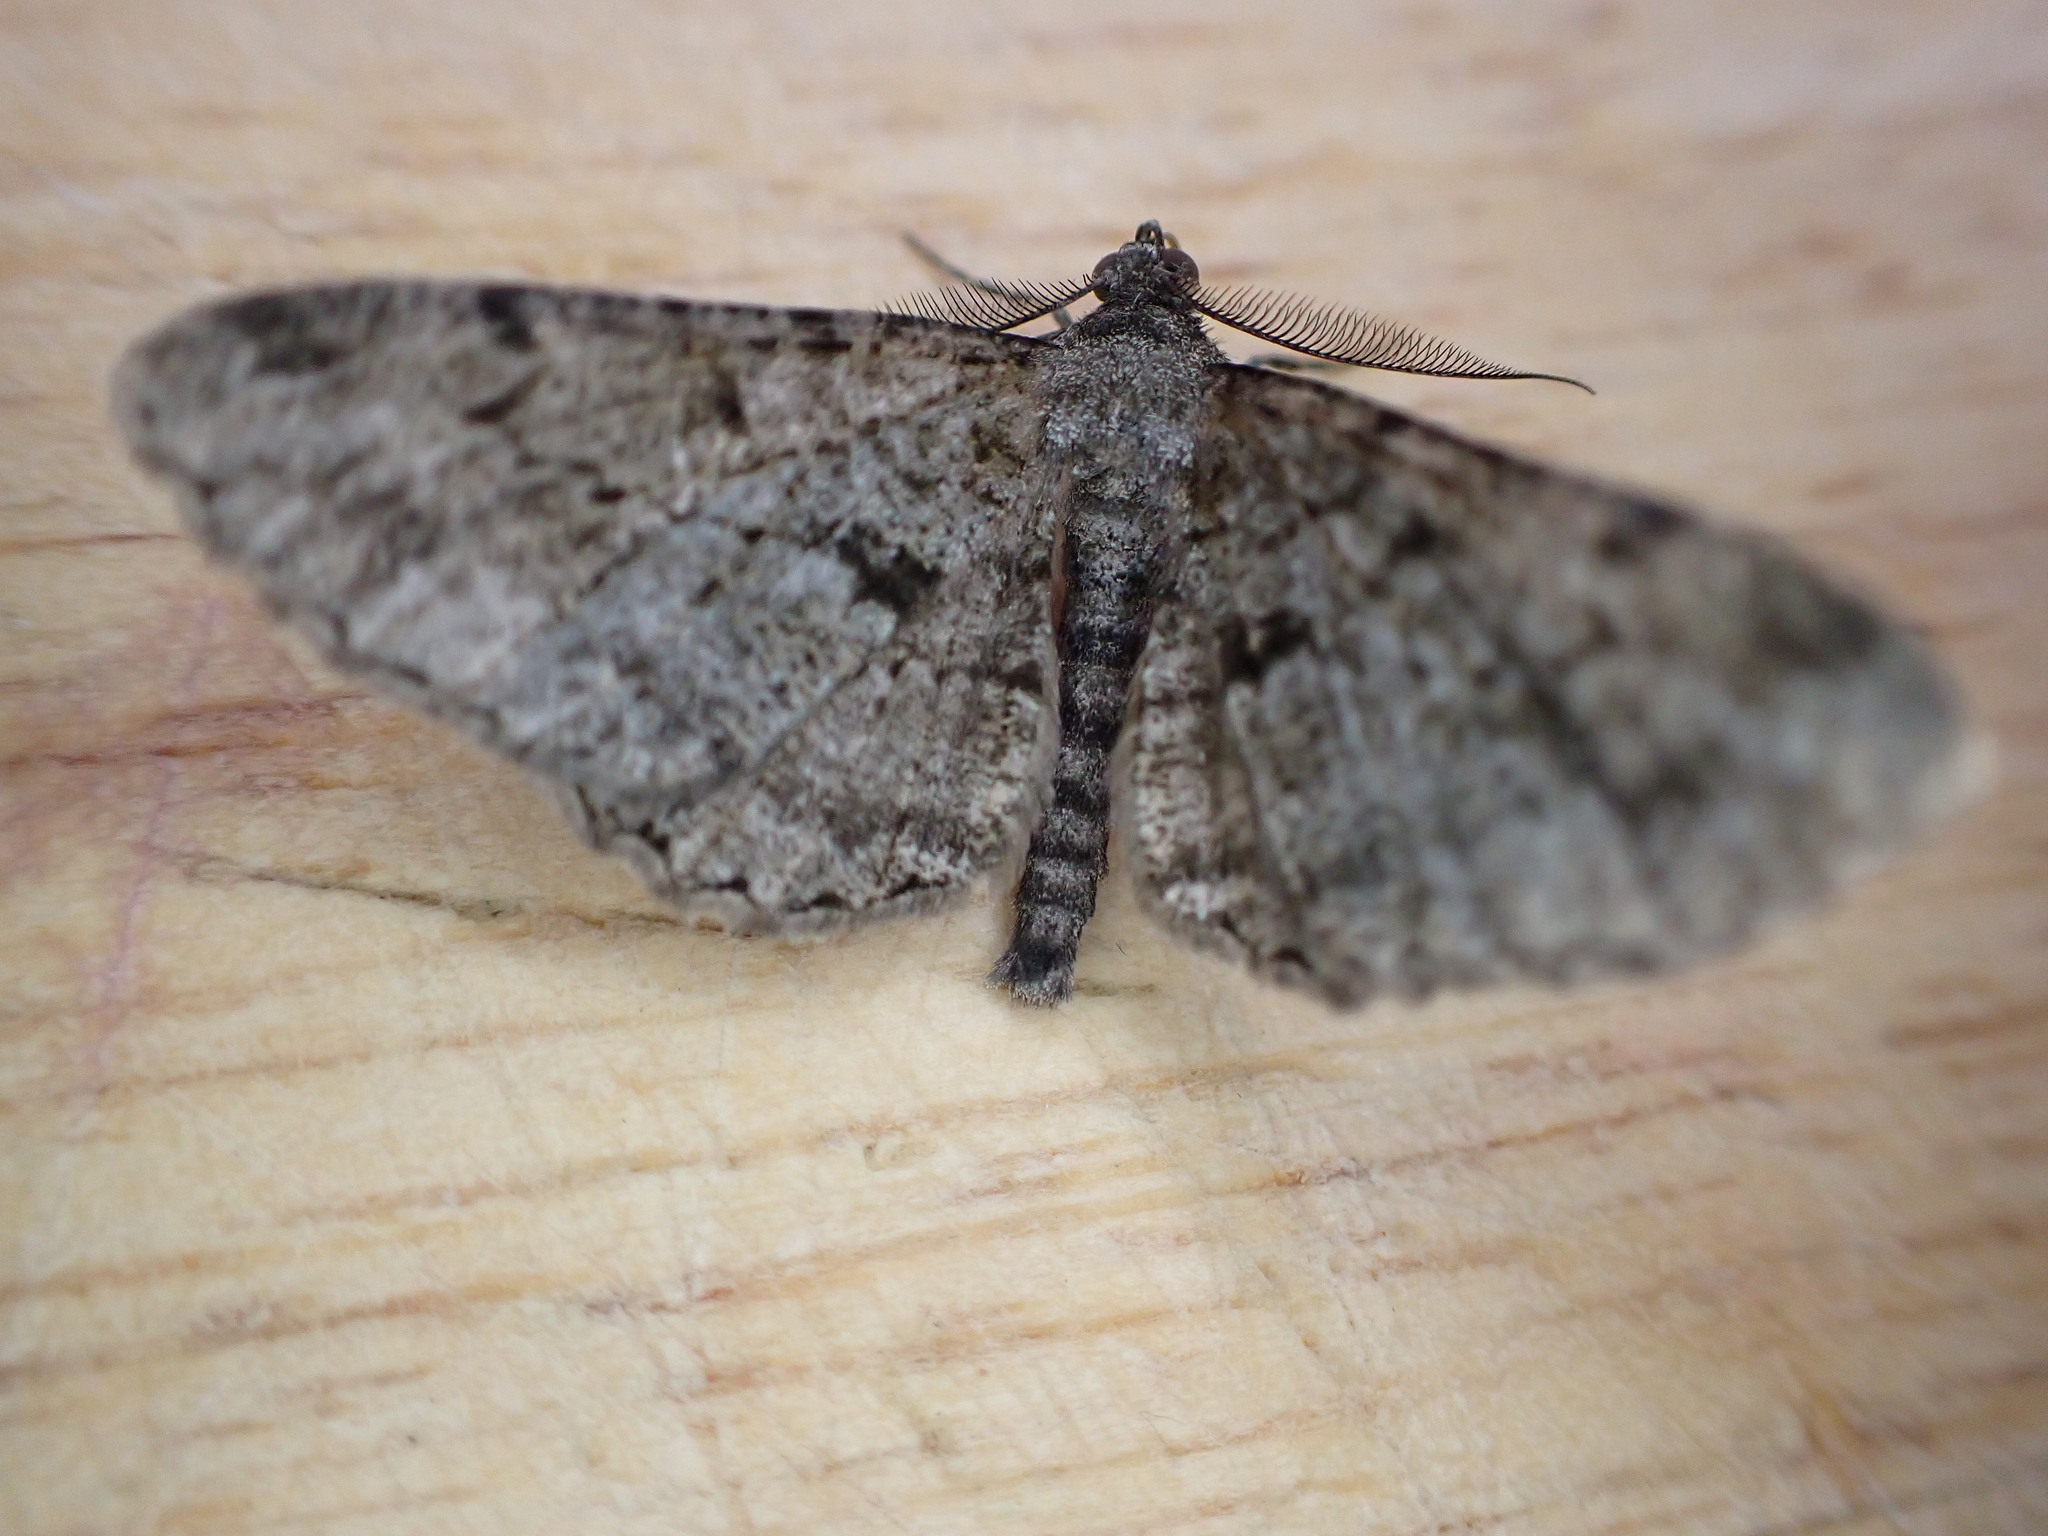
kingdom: Animalia
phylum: Arthropoda
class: Insecta
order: Lepidoptera
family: Geometridae
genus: Peribatodes
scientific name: Peribatodes rhomboidaria
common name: Willow beauty
